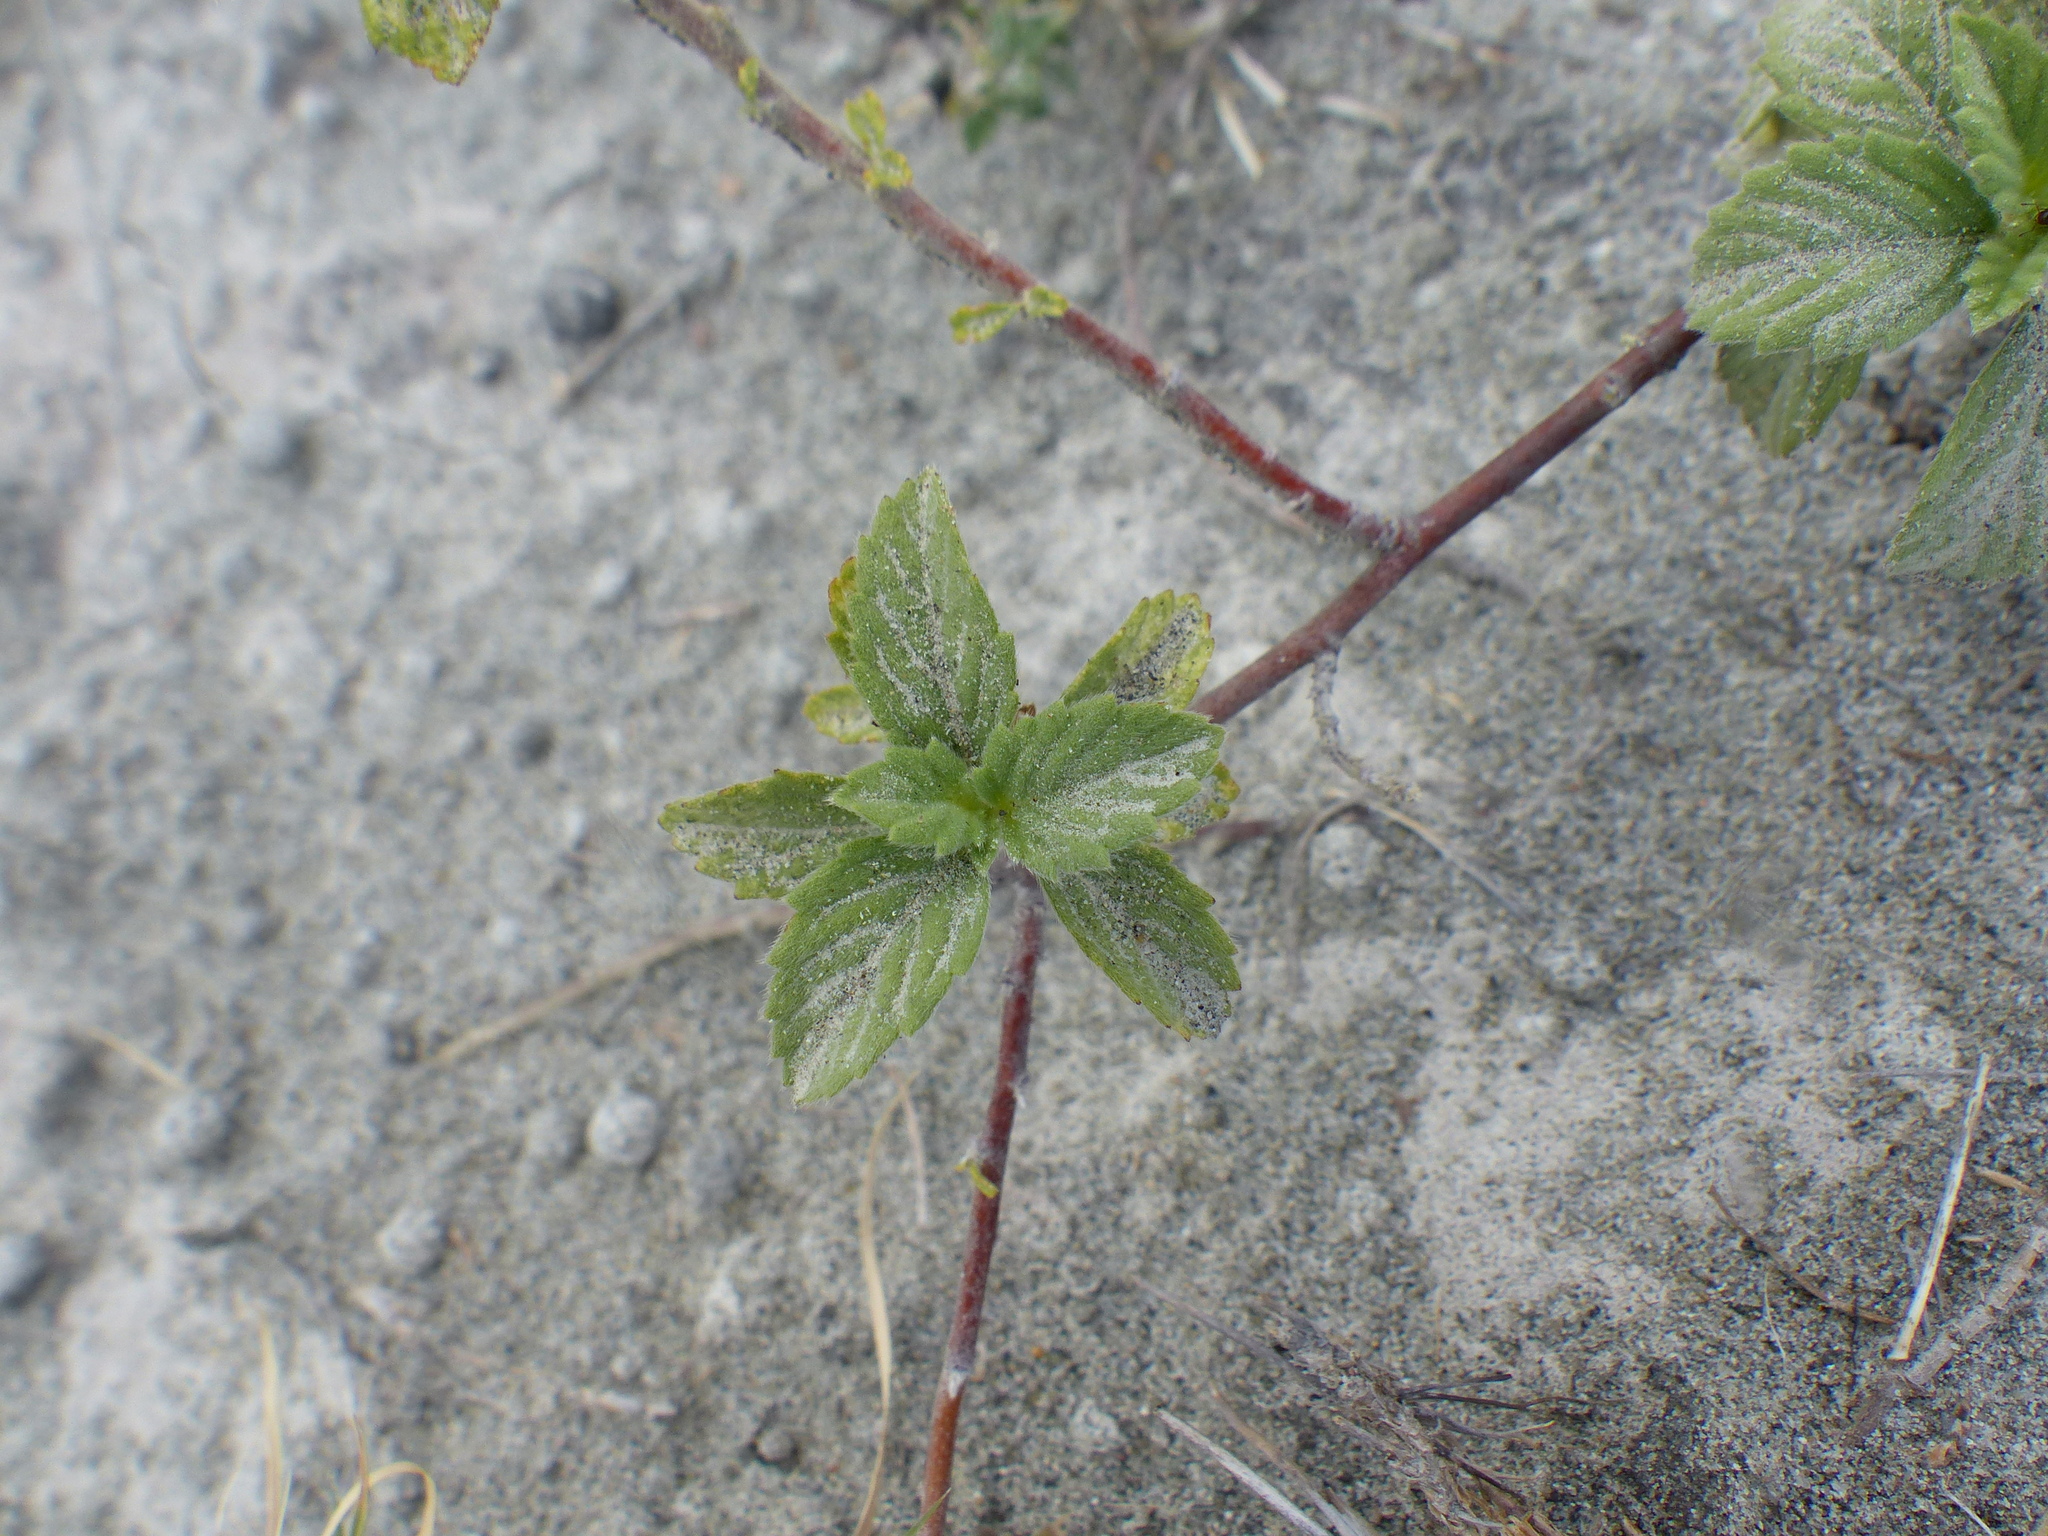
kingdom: Plantae
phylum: Tracheophyta
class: Magnoliopsida
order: Malpighiales
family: Turneraceae
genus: Turnera
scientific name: Turnera subulata
